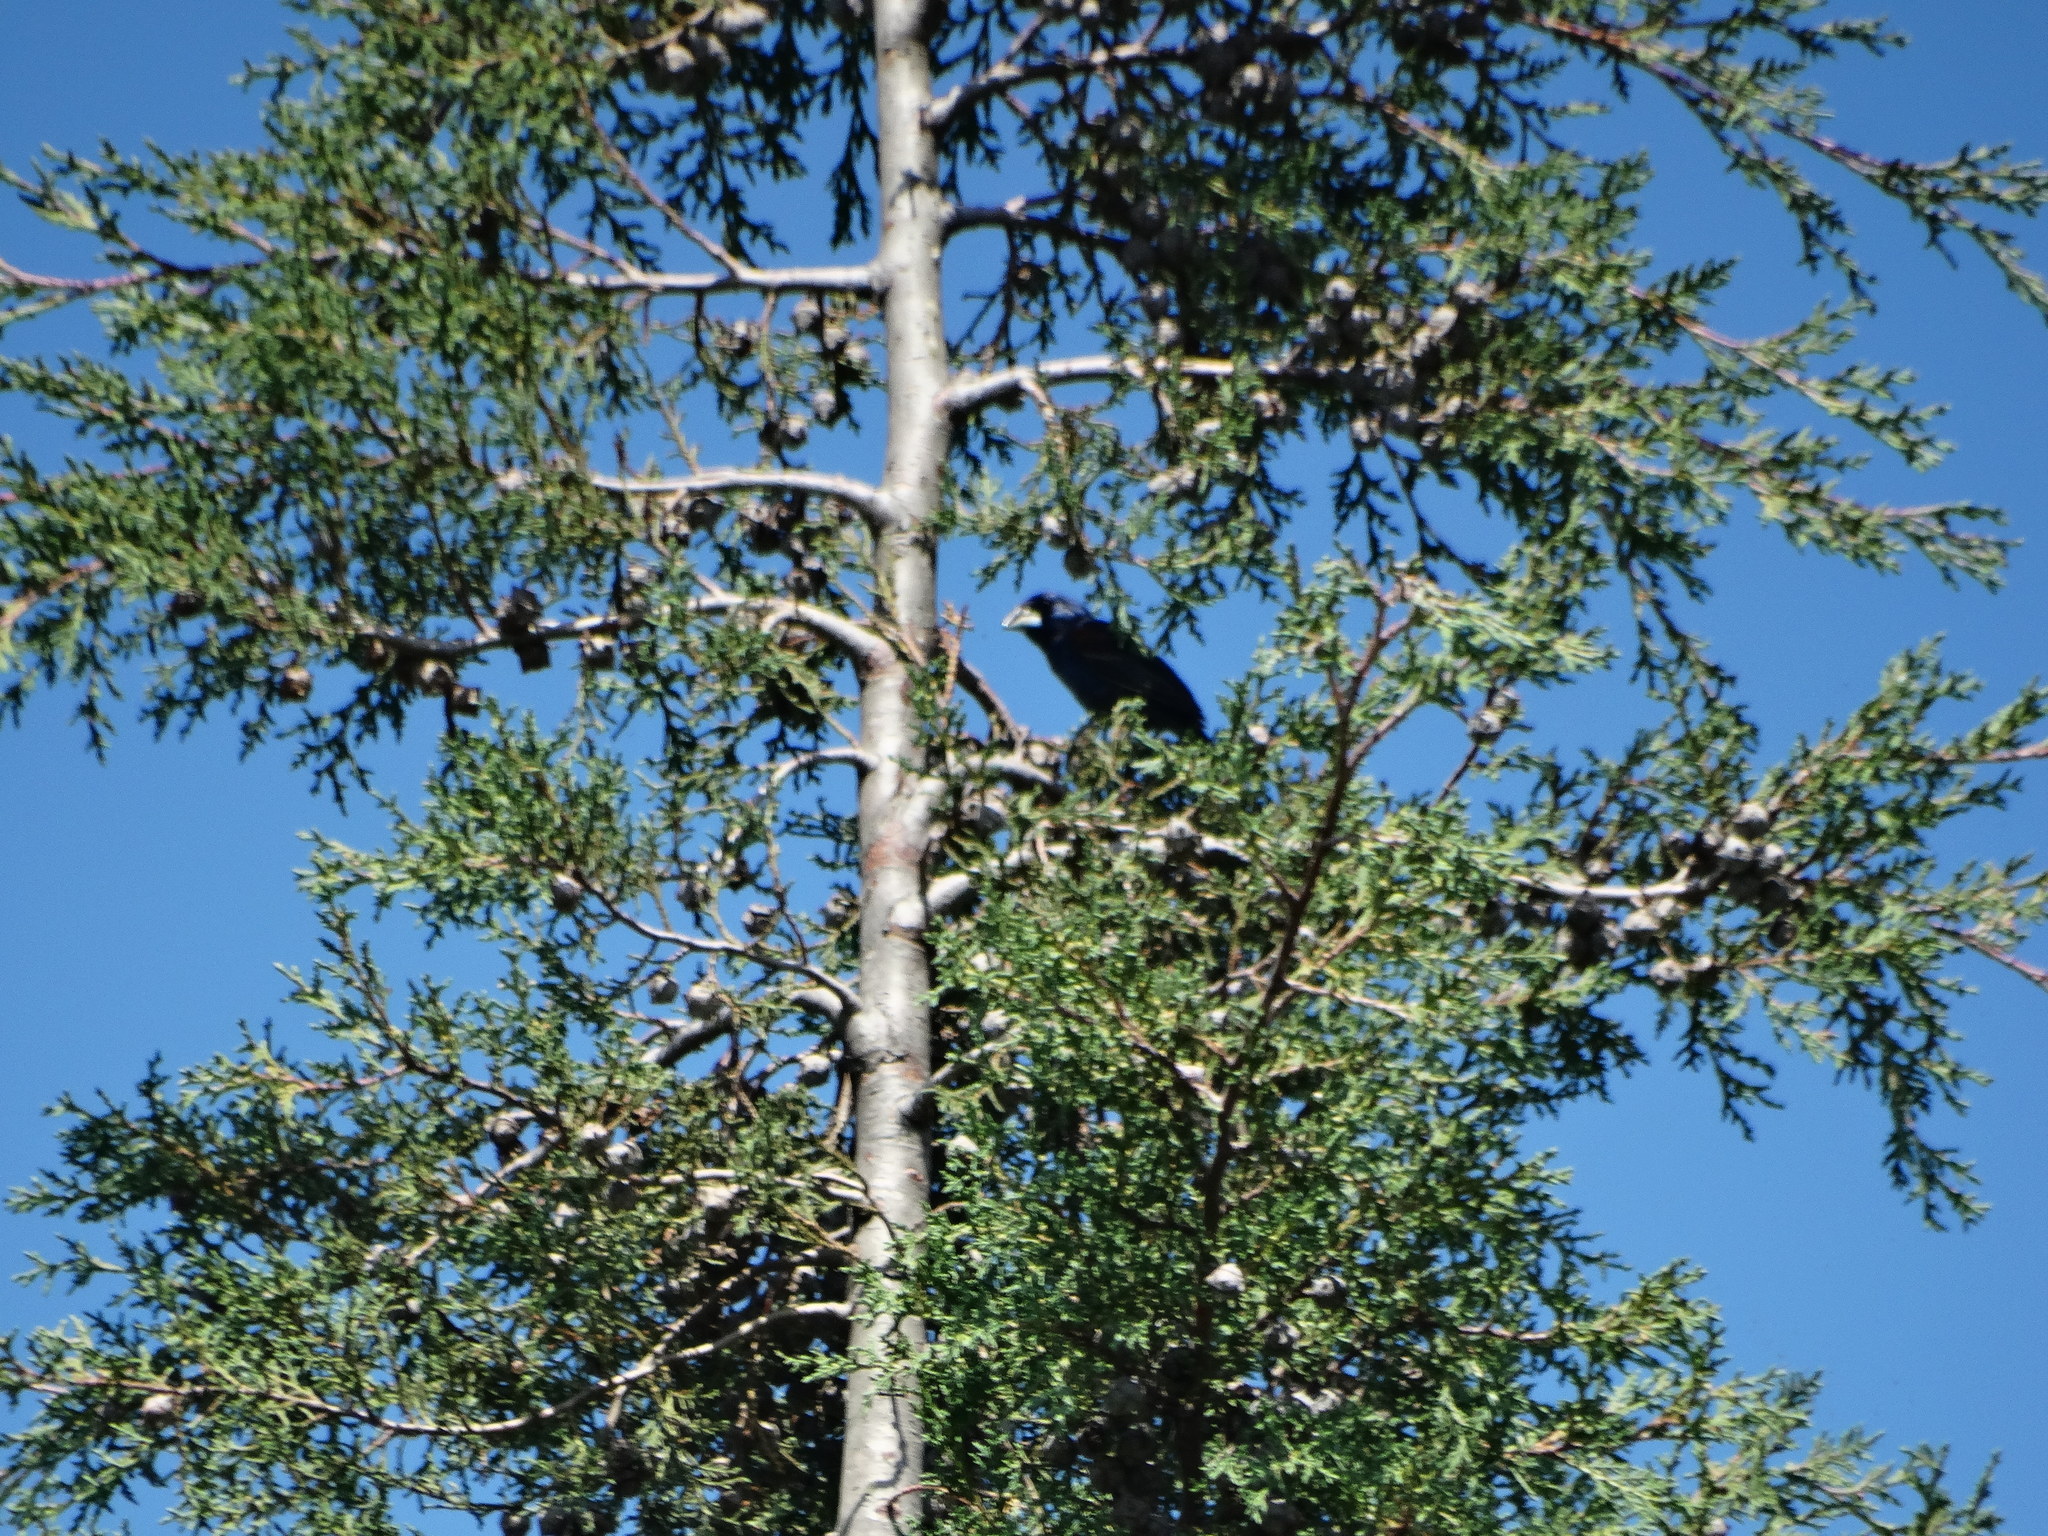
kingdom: Animalia
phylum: Chordata
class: Aves
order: Passeriformes
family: Cardinalidae
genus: Passerina
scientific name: Passerina caerulea
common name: Blue grosbeak
